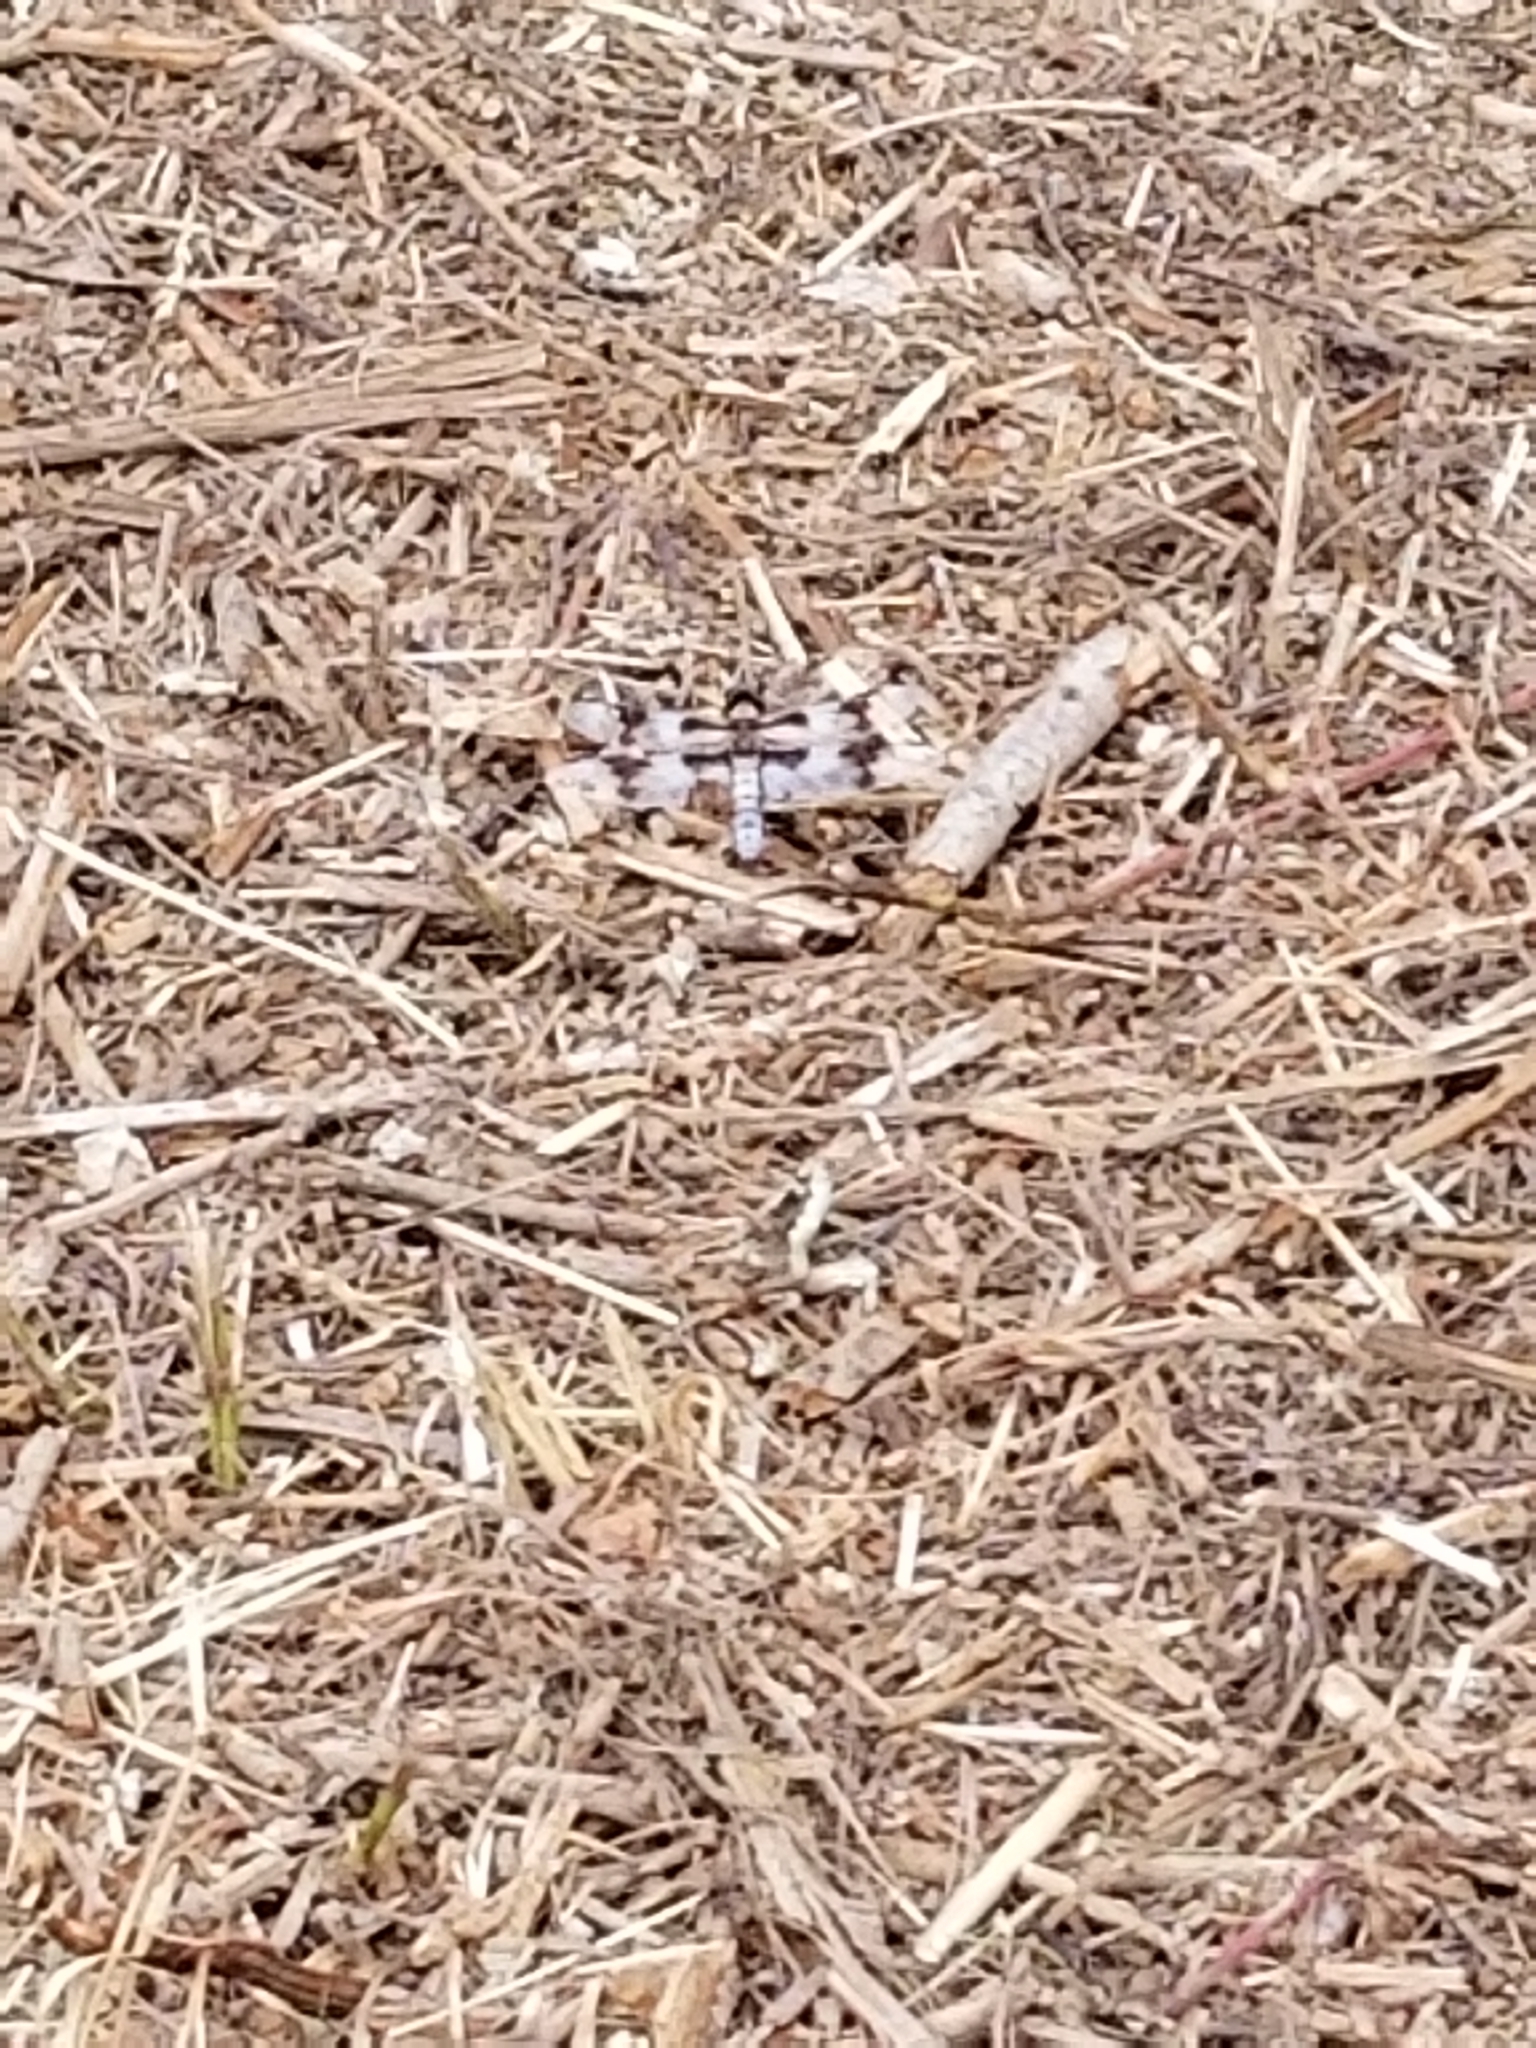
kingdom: Animalia
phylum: Arthropoda
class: Insecta
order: Odonata
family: Libellulidae
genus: Libellula
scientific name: Libellula forensis
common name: Eight-spotted skimmer
